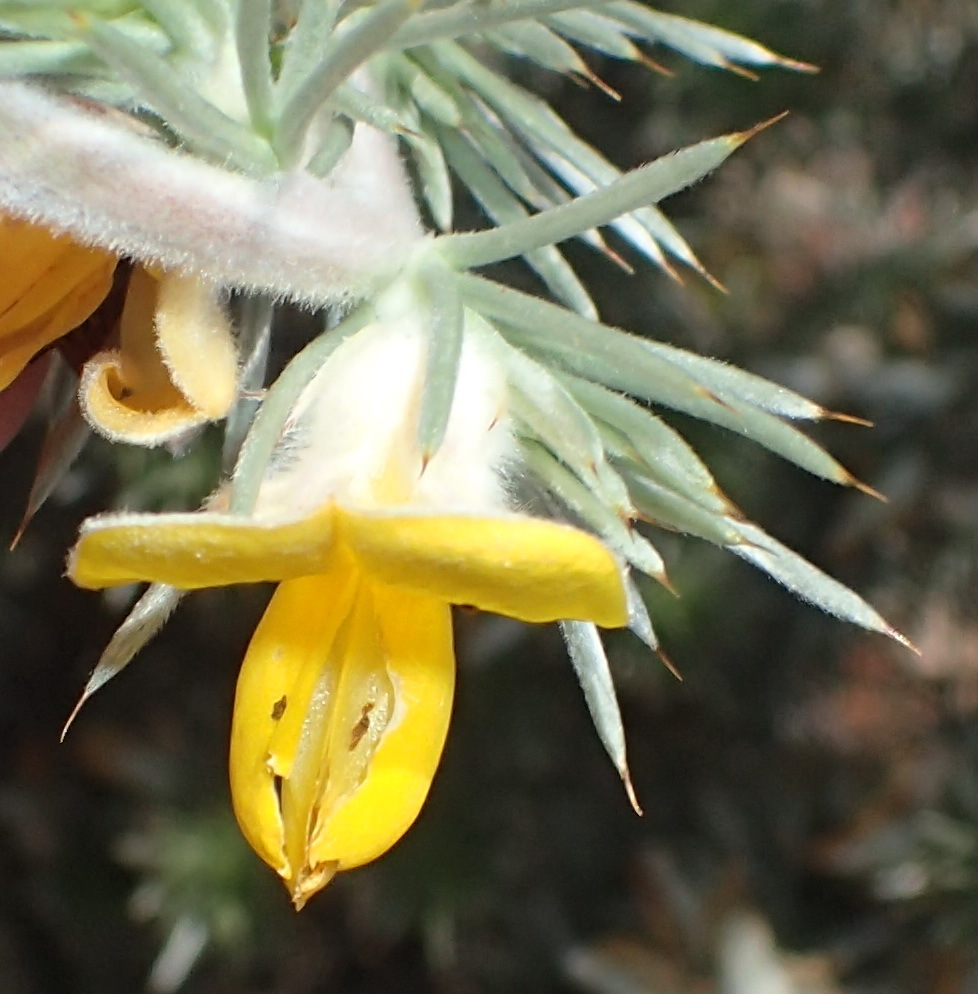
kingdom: Plantae
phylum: Tracheophyta
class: Magnoliopsida
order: Fabales
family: Fabaceae
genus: Aspalathus
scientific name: Aspalathus hystrix
